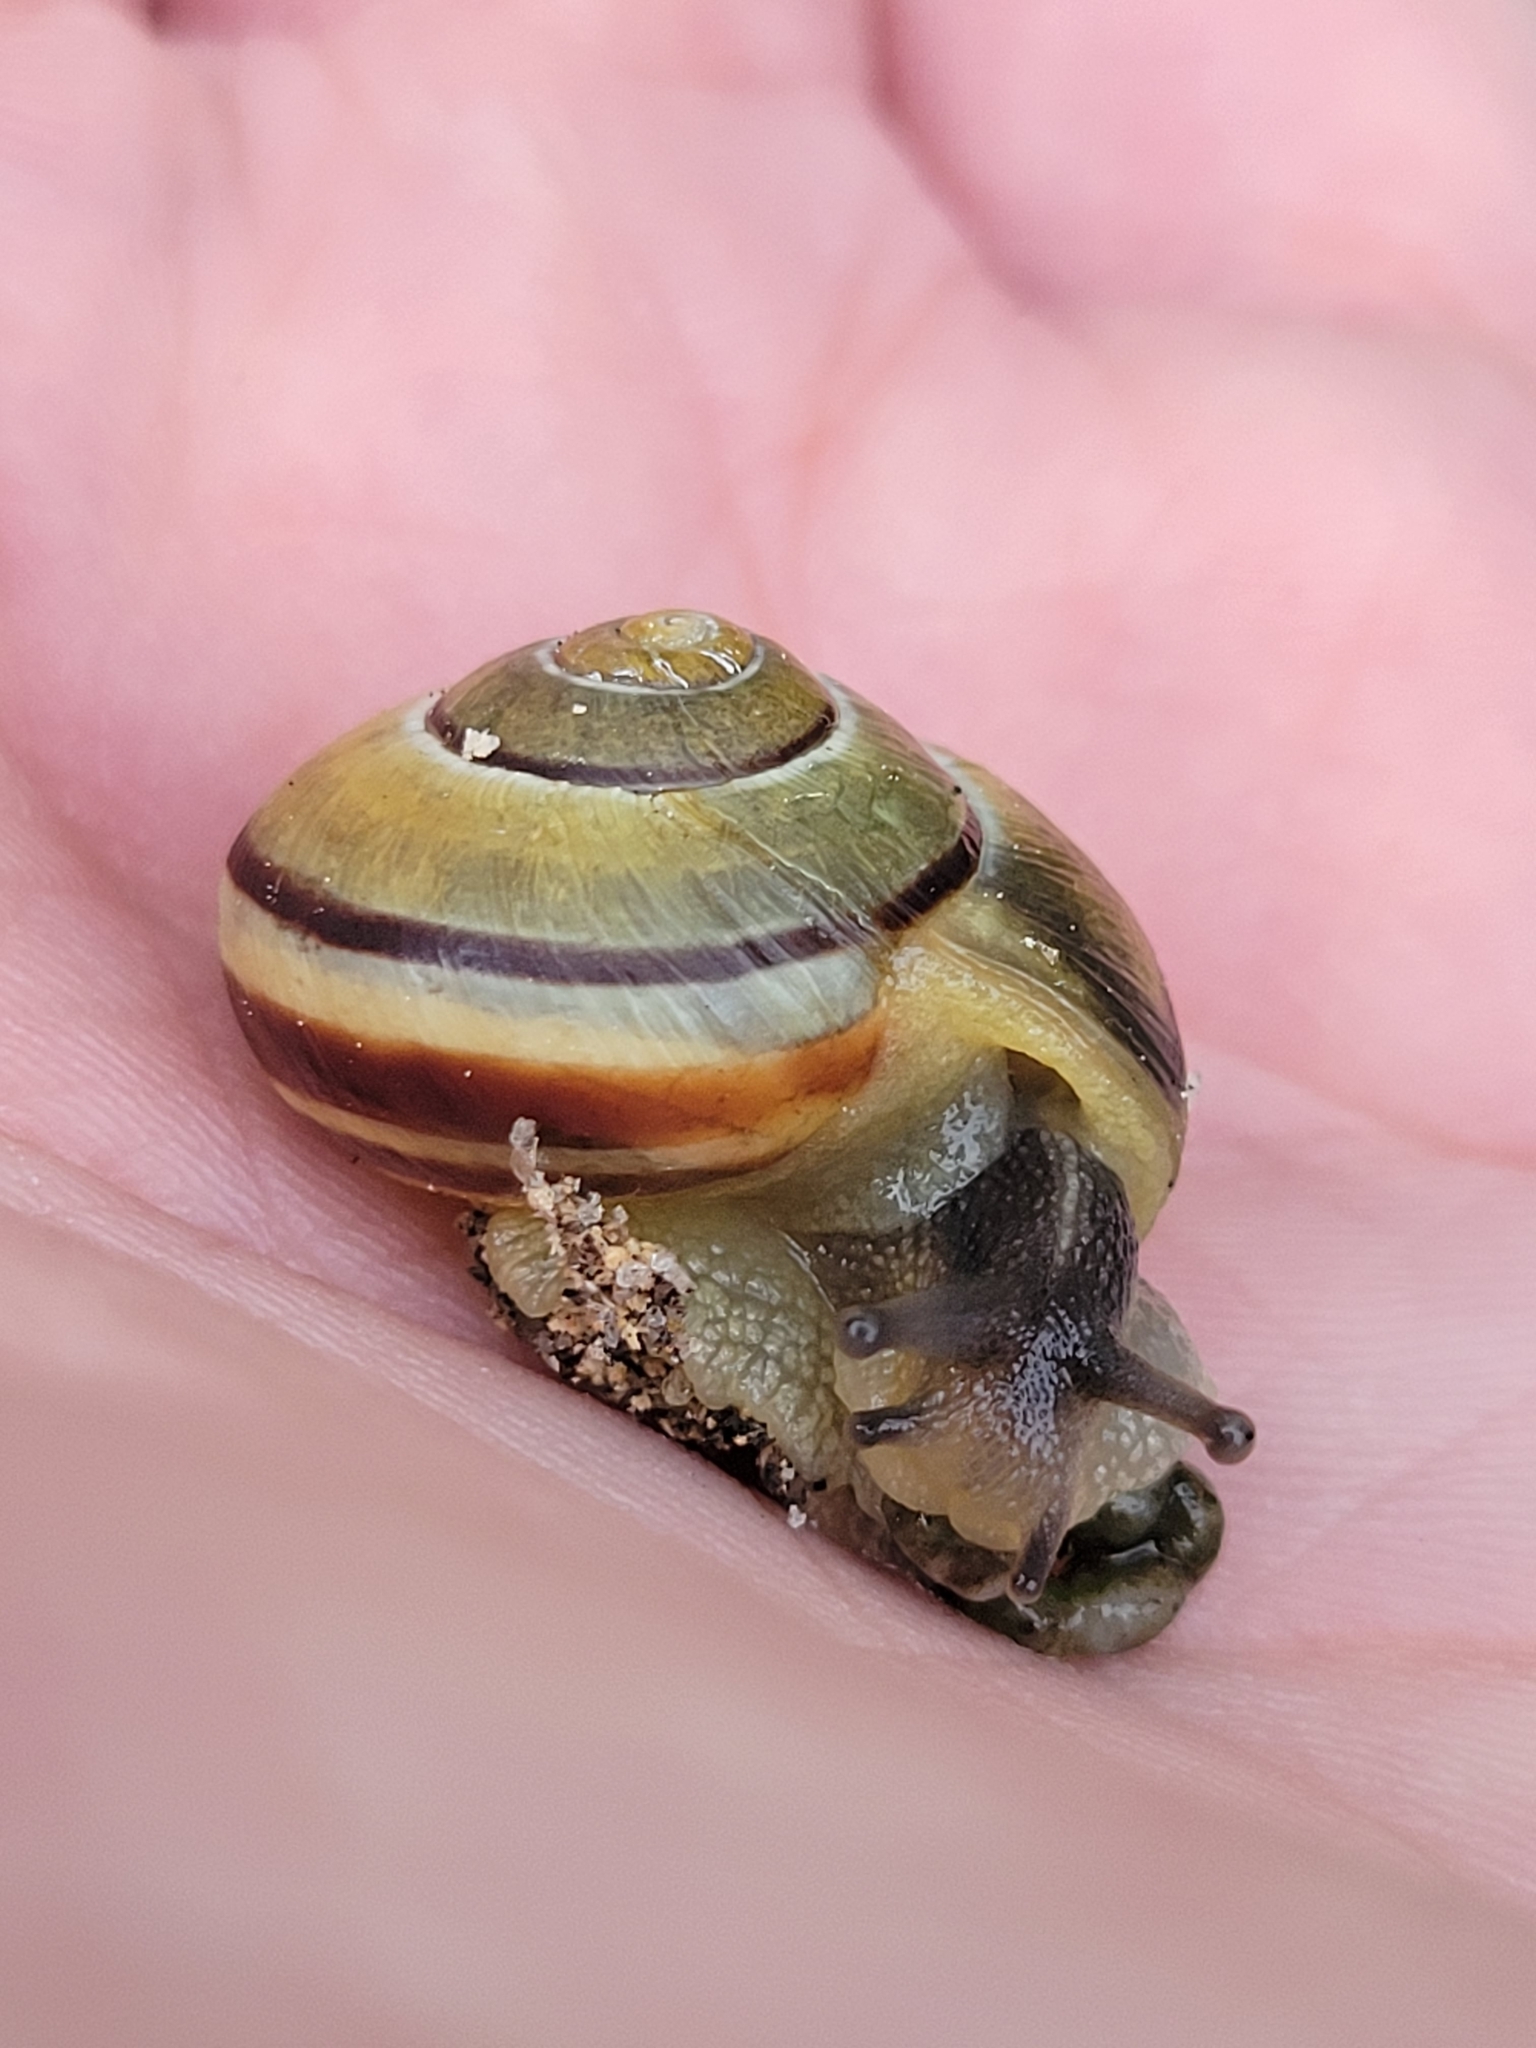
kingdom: Animalia
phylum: Mollusca
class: Gastropoda
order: Stylommatophora
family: Helicidae
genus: Cepaea
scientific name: Cepaea nemoralis
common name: Grovesnail
